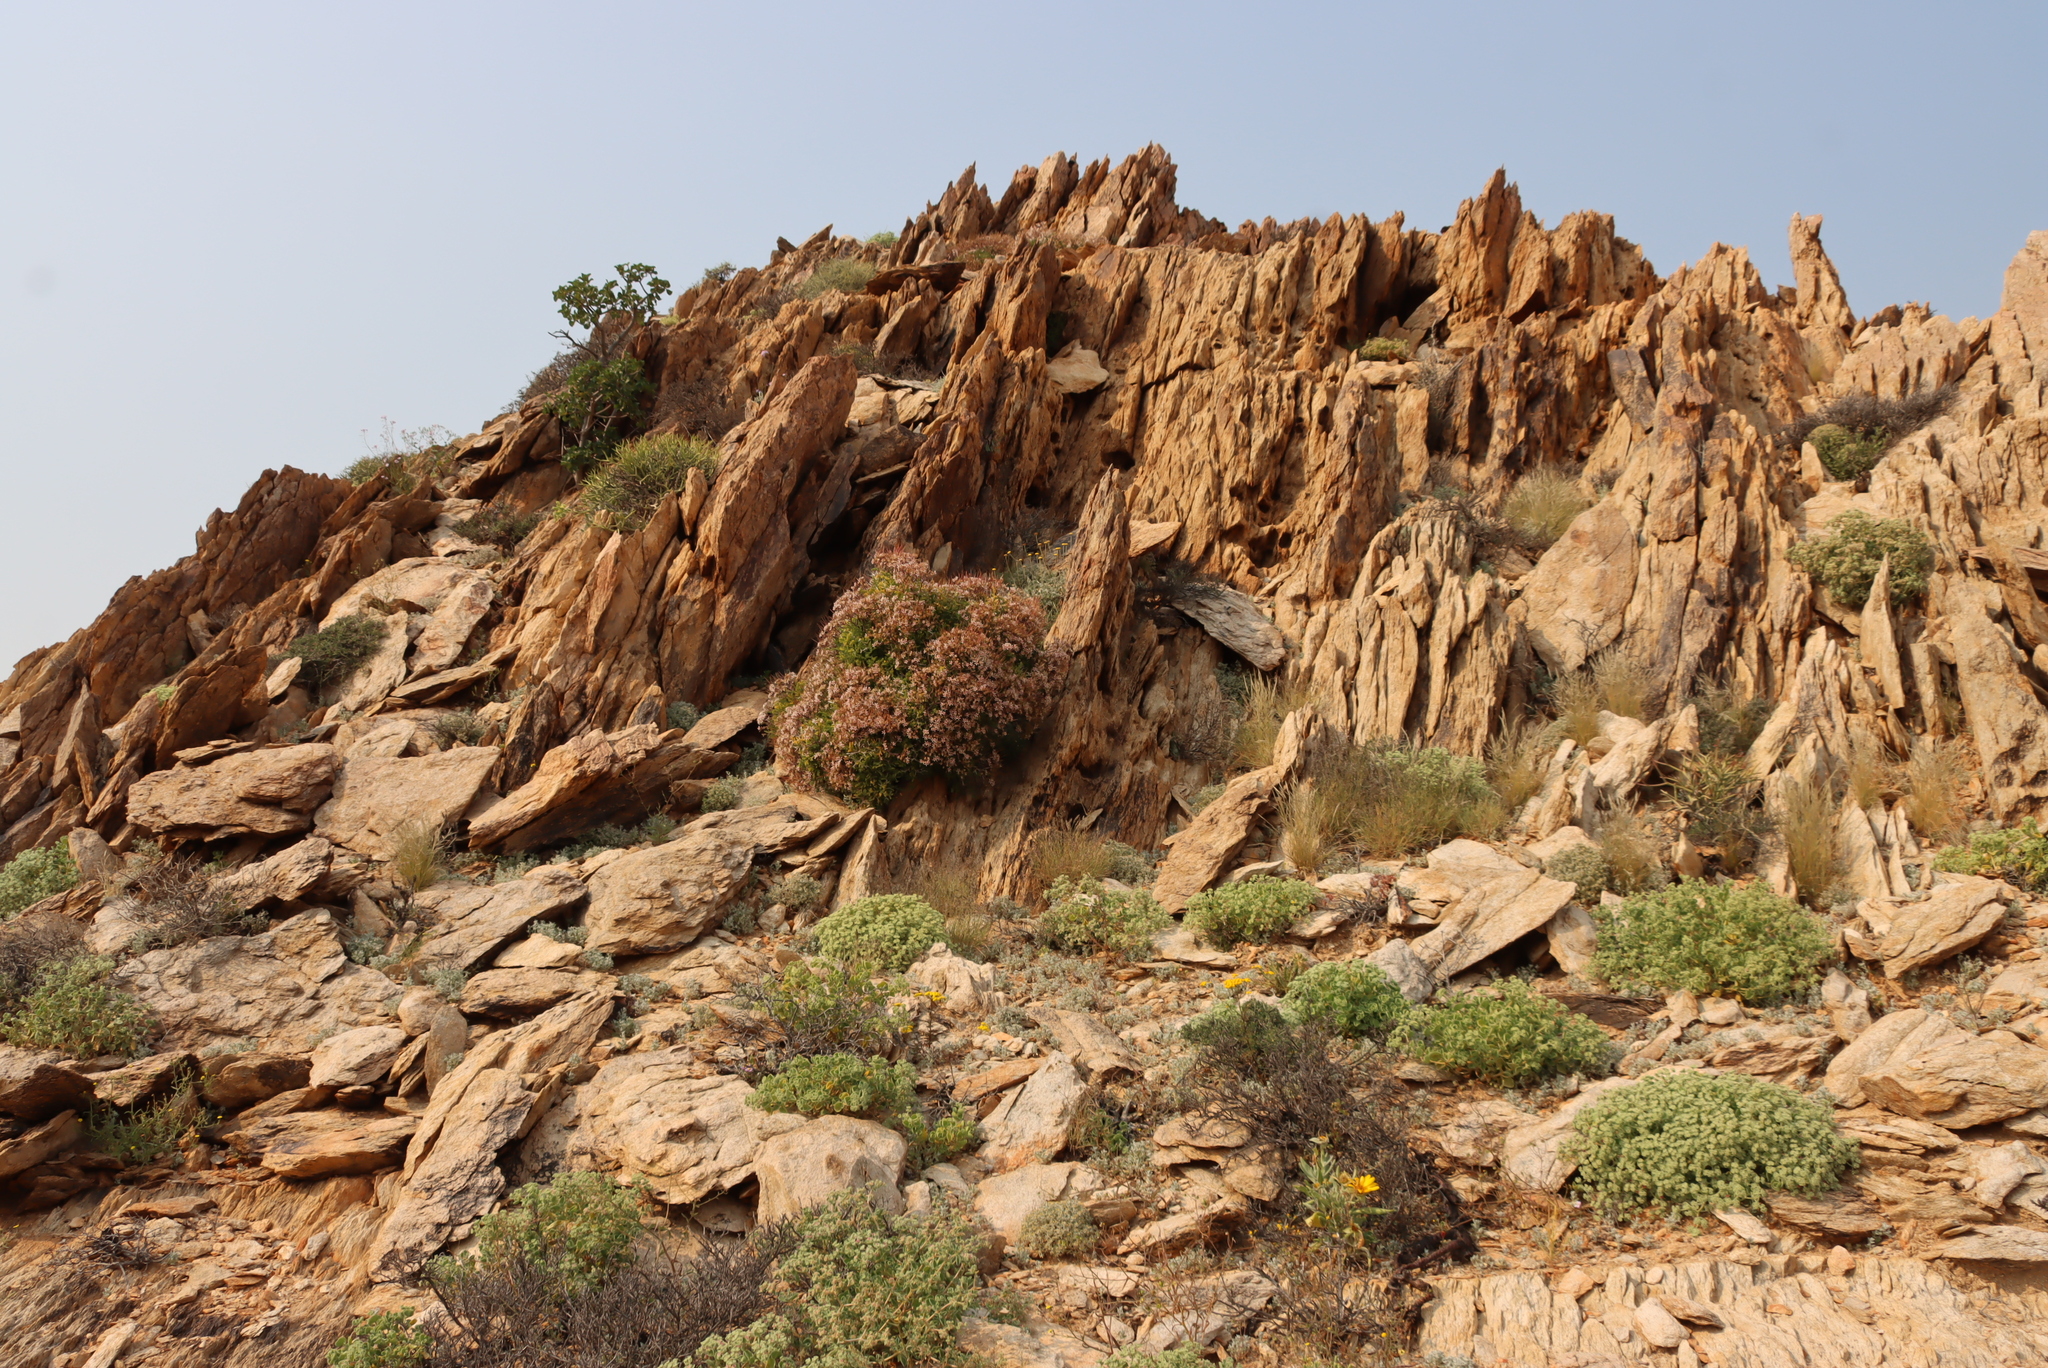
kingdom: Plantae
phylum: Tracheophyta
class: Magnoliopsida
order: Geraniales
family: Geraniaceae
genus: Pelargonium
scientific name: Pelargonium crithmifolium
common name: Samphire-leaf pelargonium
